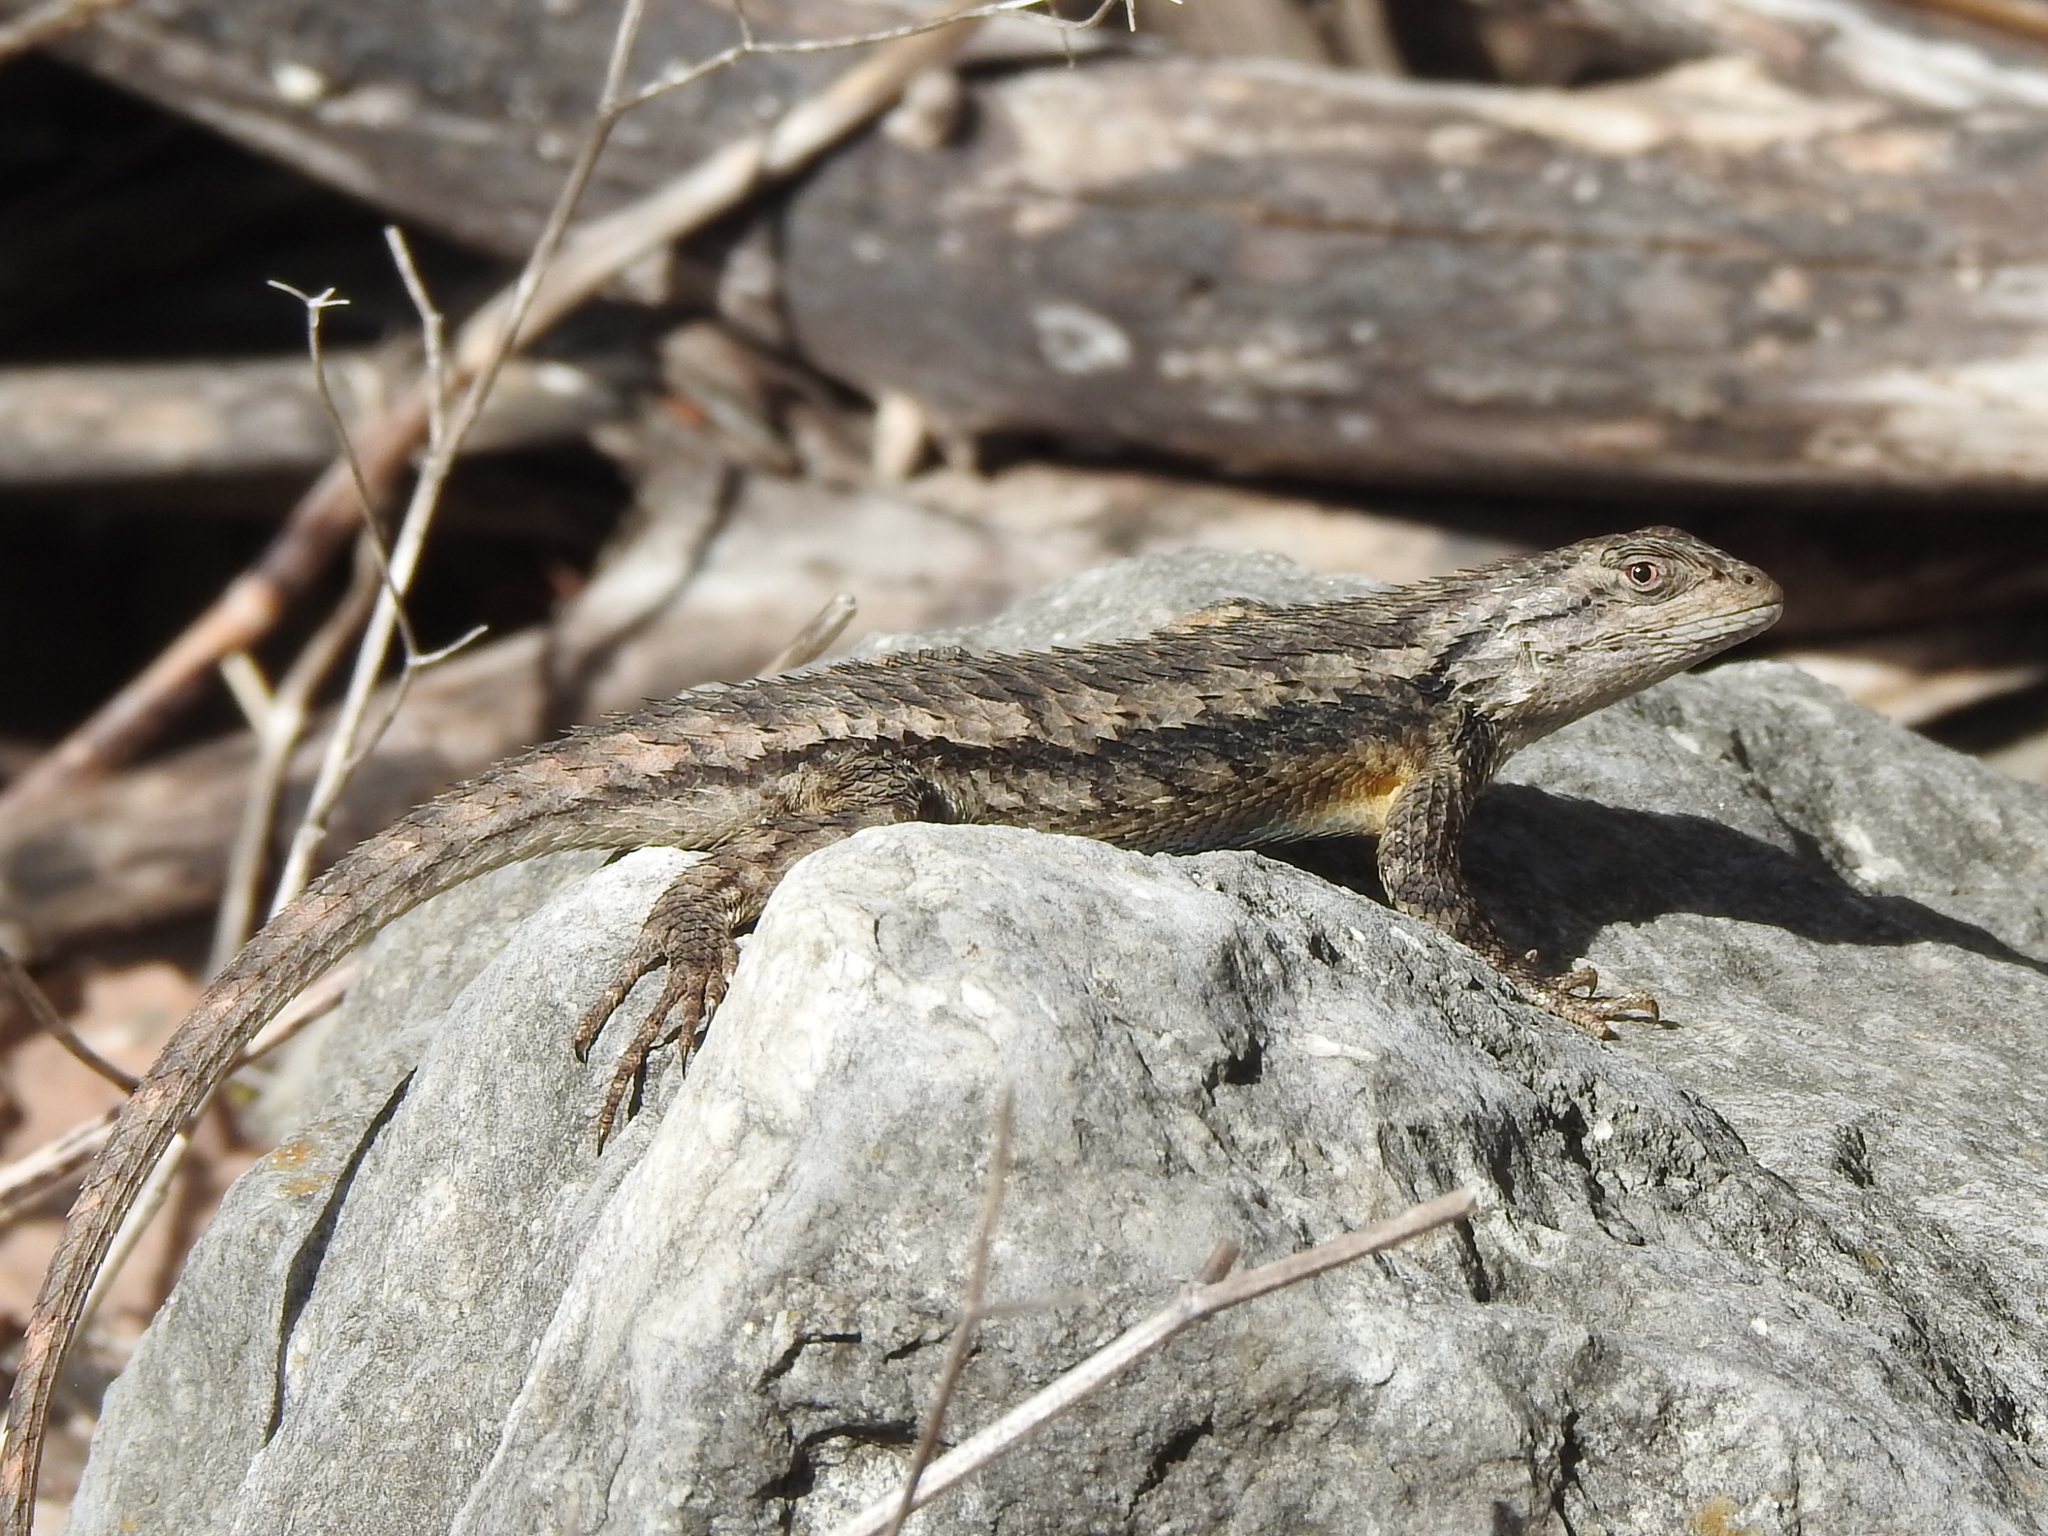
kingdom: Animalia
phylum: Chordata
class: Squamata
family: Phrynosomatidae
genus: Sceloporus
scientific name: Sceloporus olivaceus
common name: Texas spiny lizard
